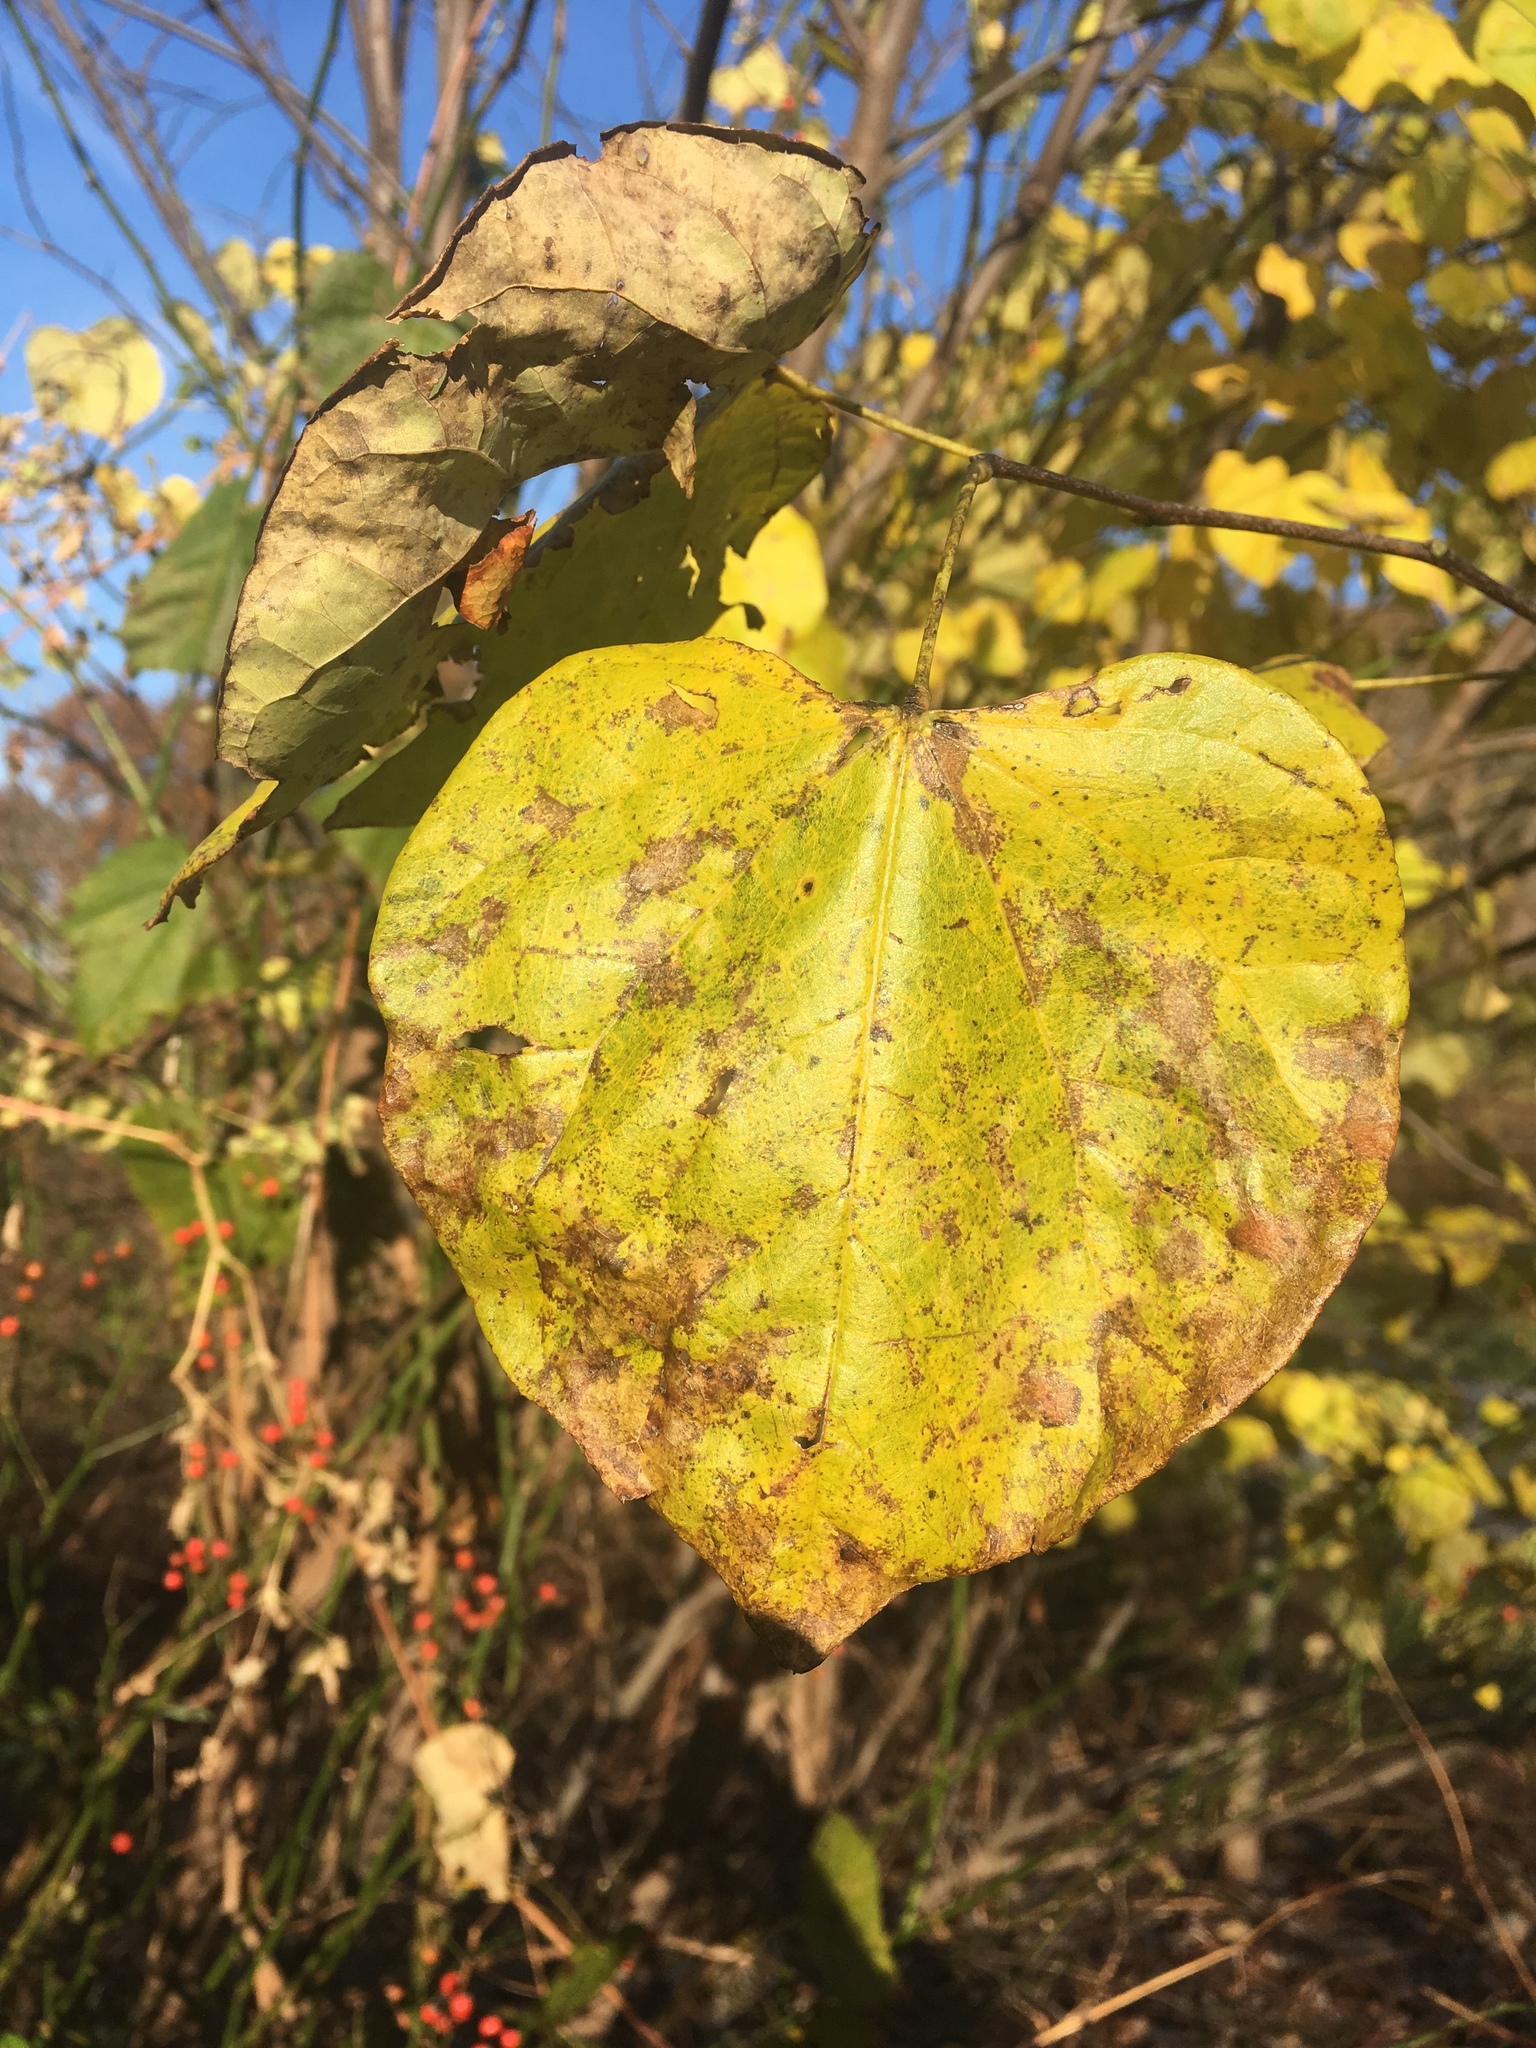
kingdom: Plantae
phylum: Tracheophyta
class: Magnoliopsida
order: Fabales
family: Fabaceae
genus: Cercis
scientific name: Cercis canadensis
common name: Eastern redbud
